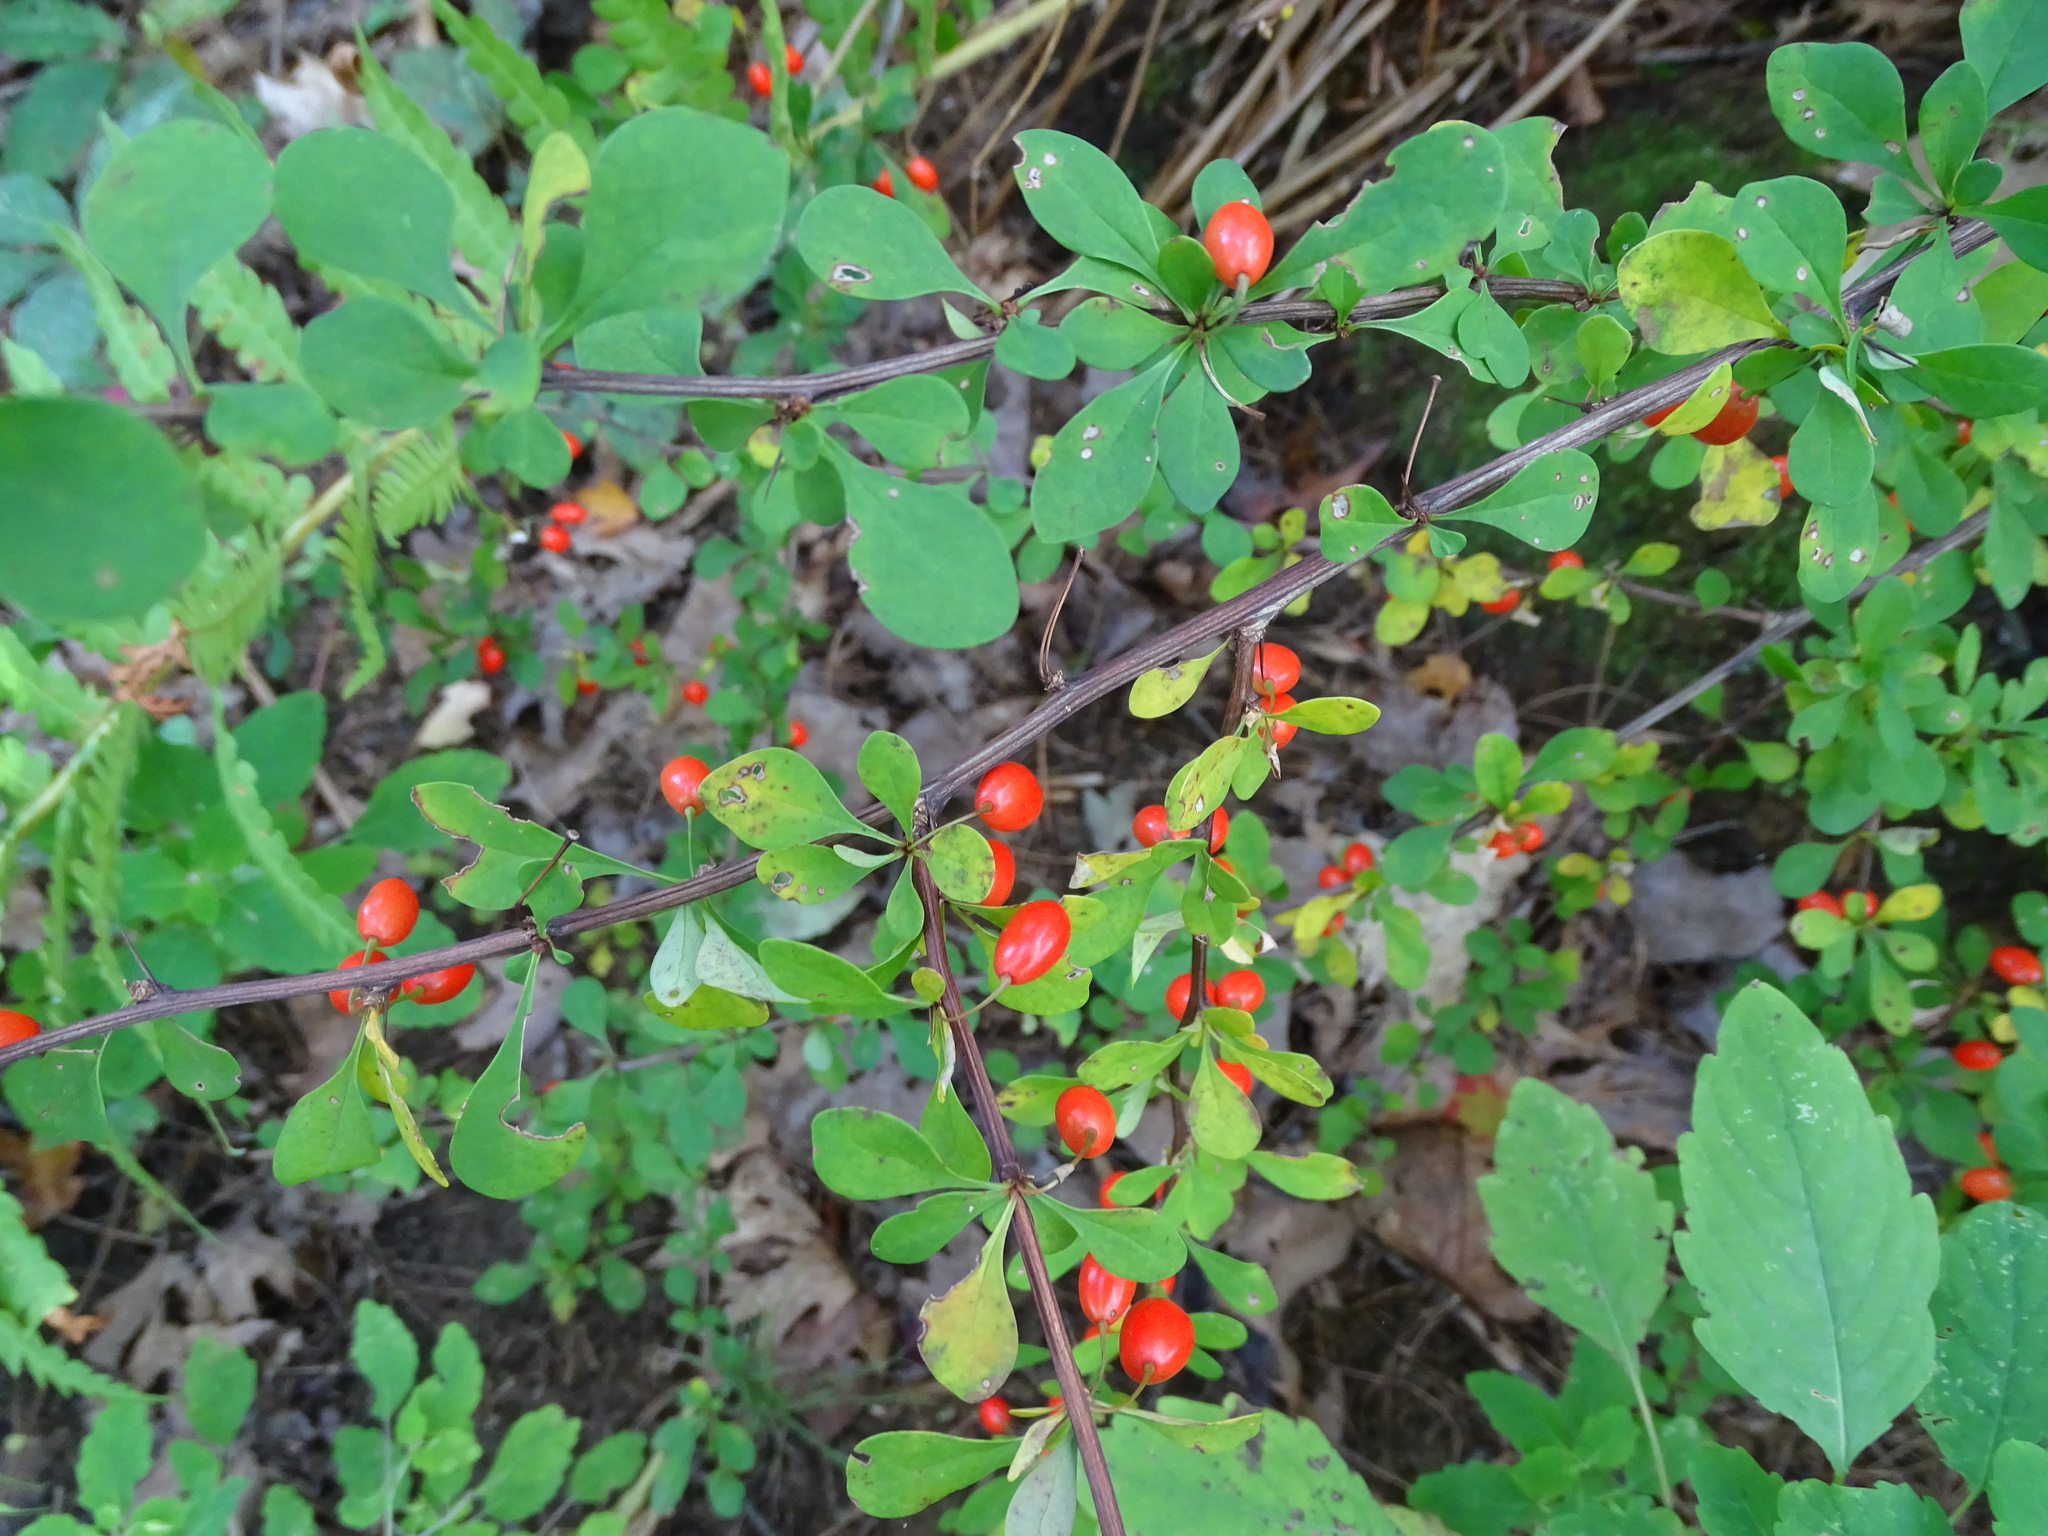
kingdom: Plantae
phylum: Tracheophyta
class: Magnoliopsida
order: Ranunculales
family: Berberidaceae
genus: Berberis
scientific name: Berberis thunbergii
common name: Japanese barberry
